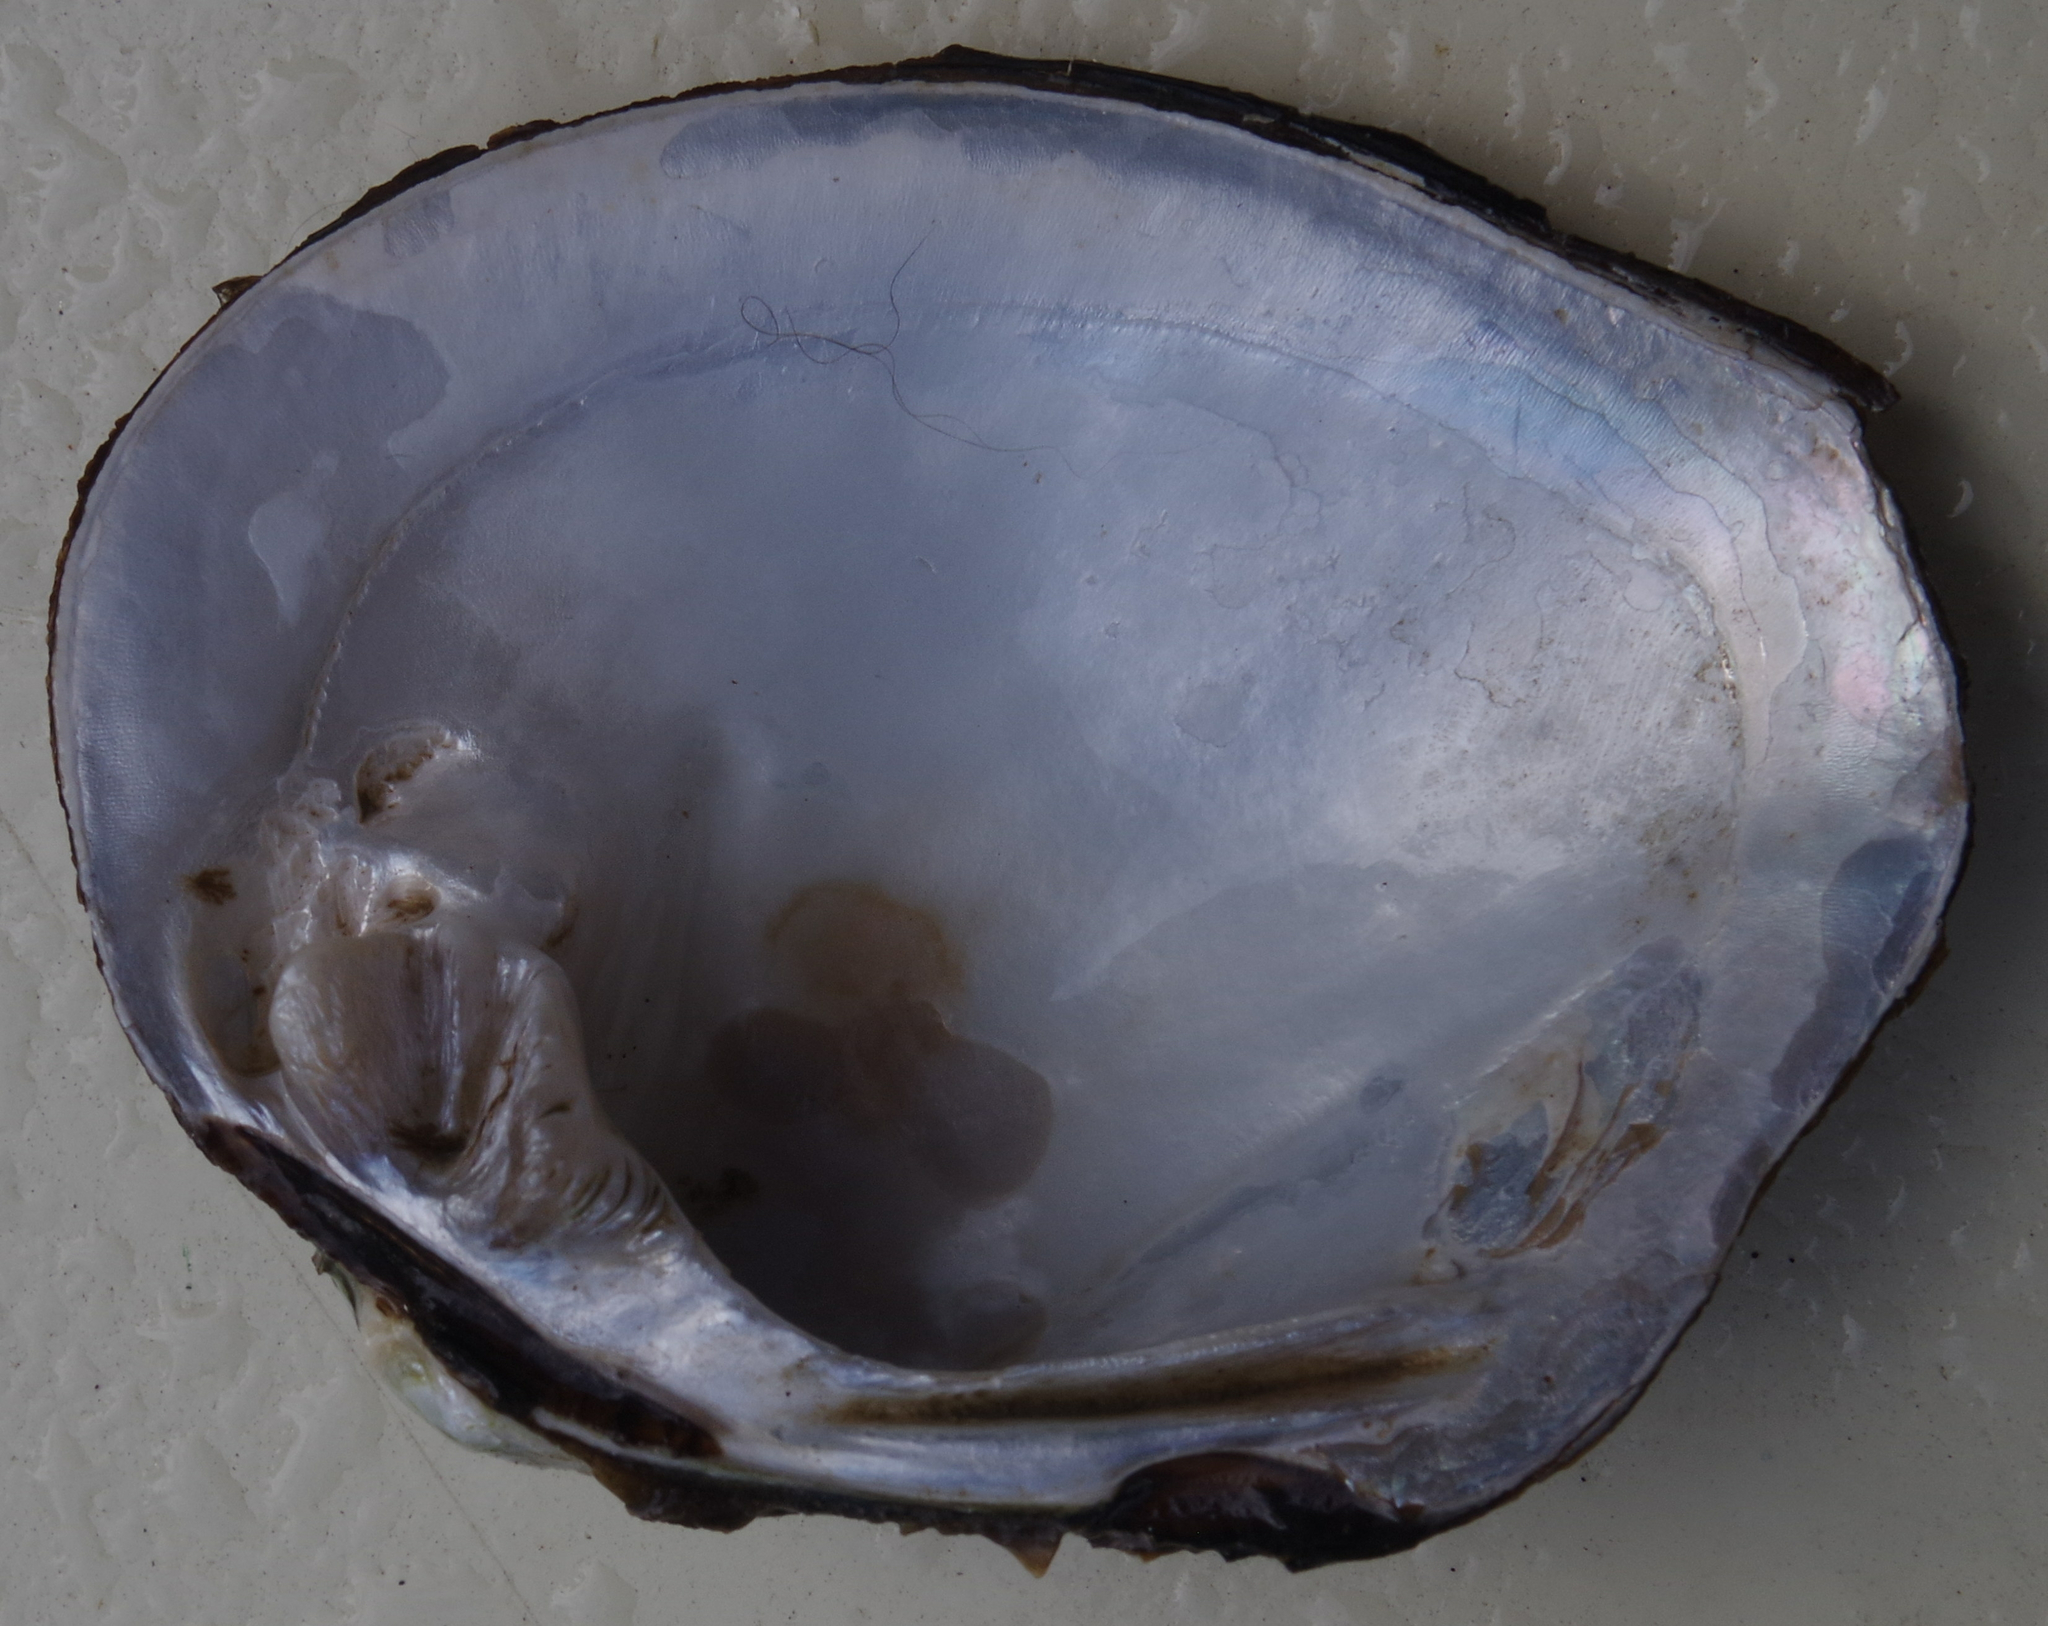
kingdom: Animalia
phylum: Mollusca
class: Bivalvia
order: Unionida
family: Unionidae
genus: Quadrula
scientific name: Quadrula quadrula
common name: Mapleleaf
